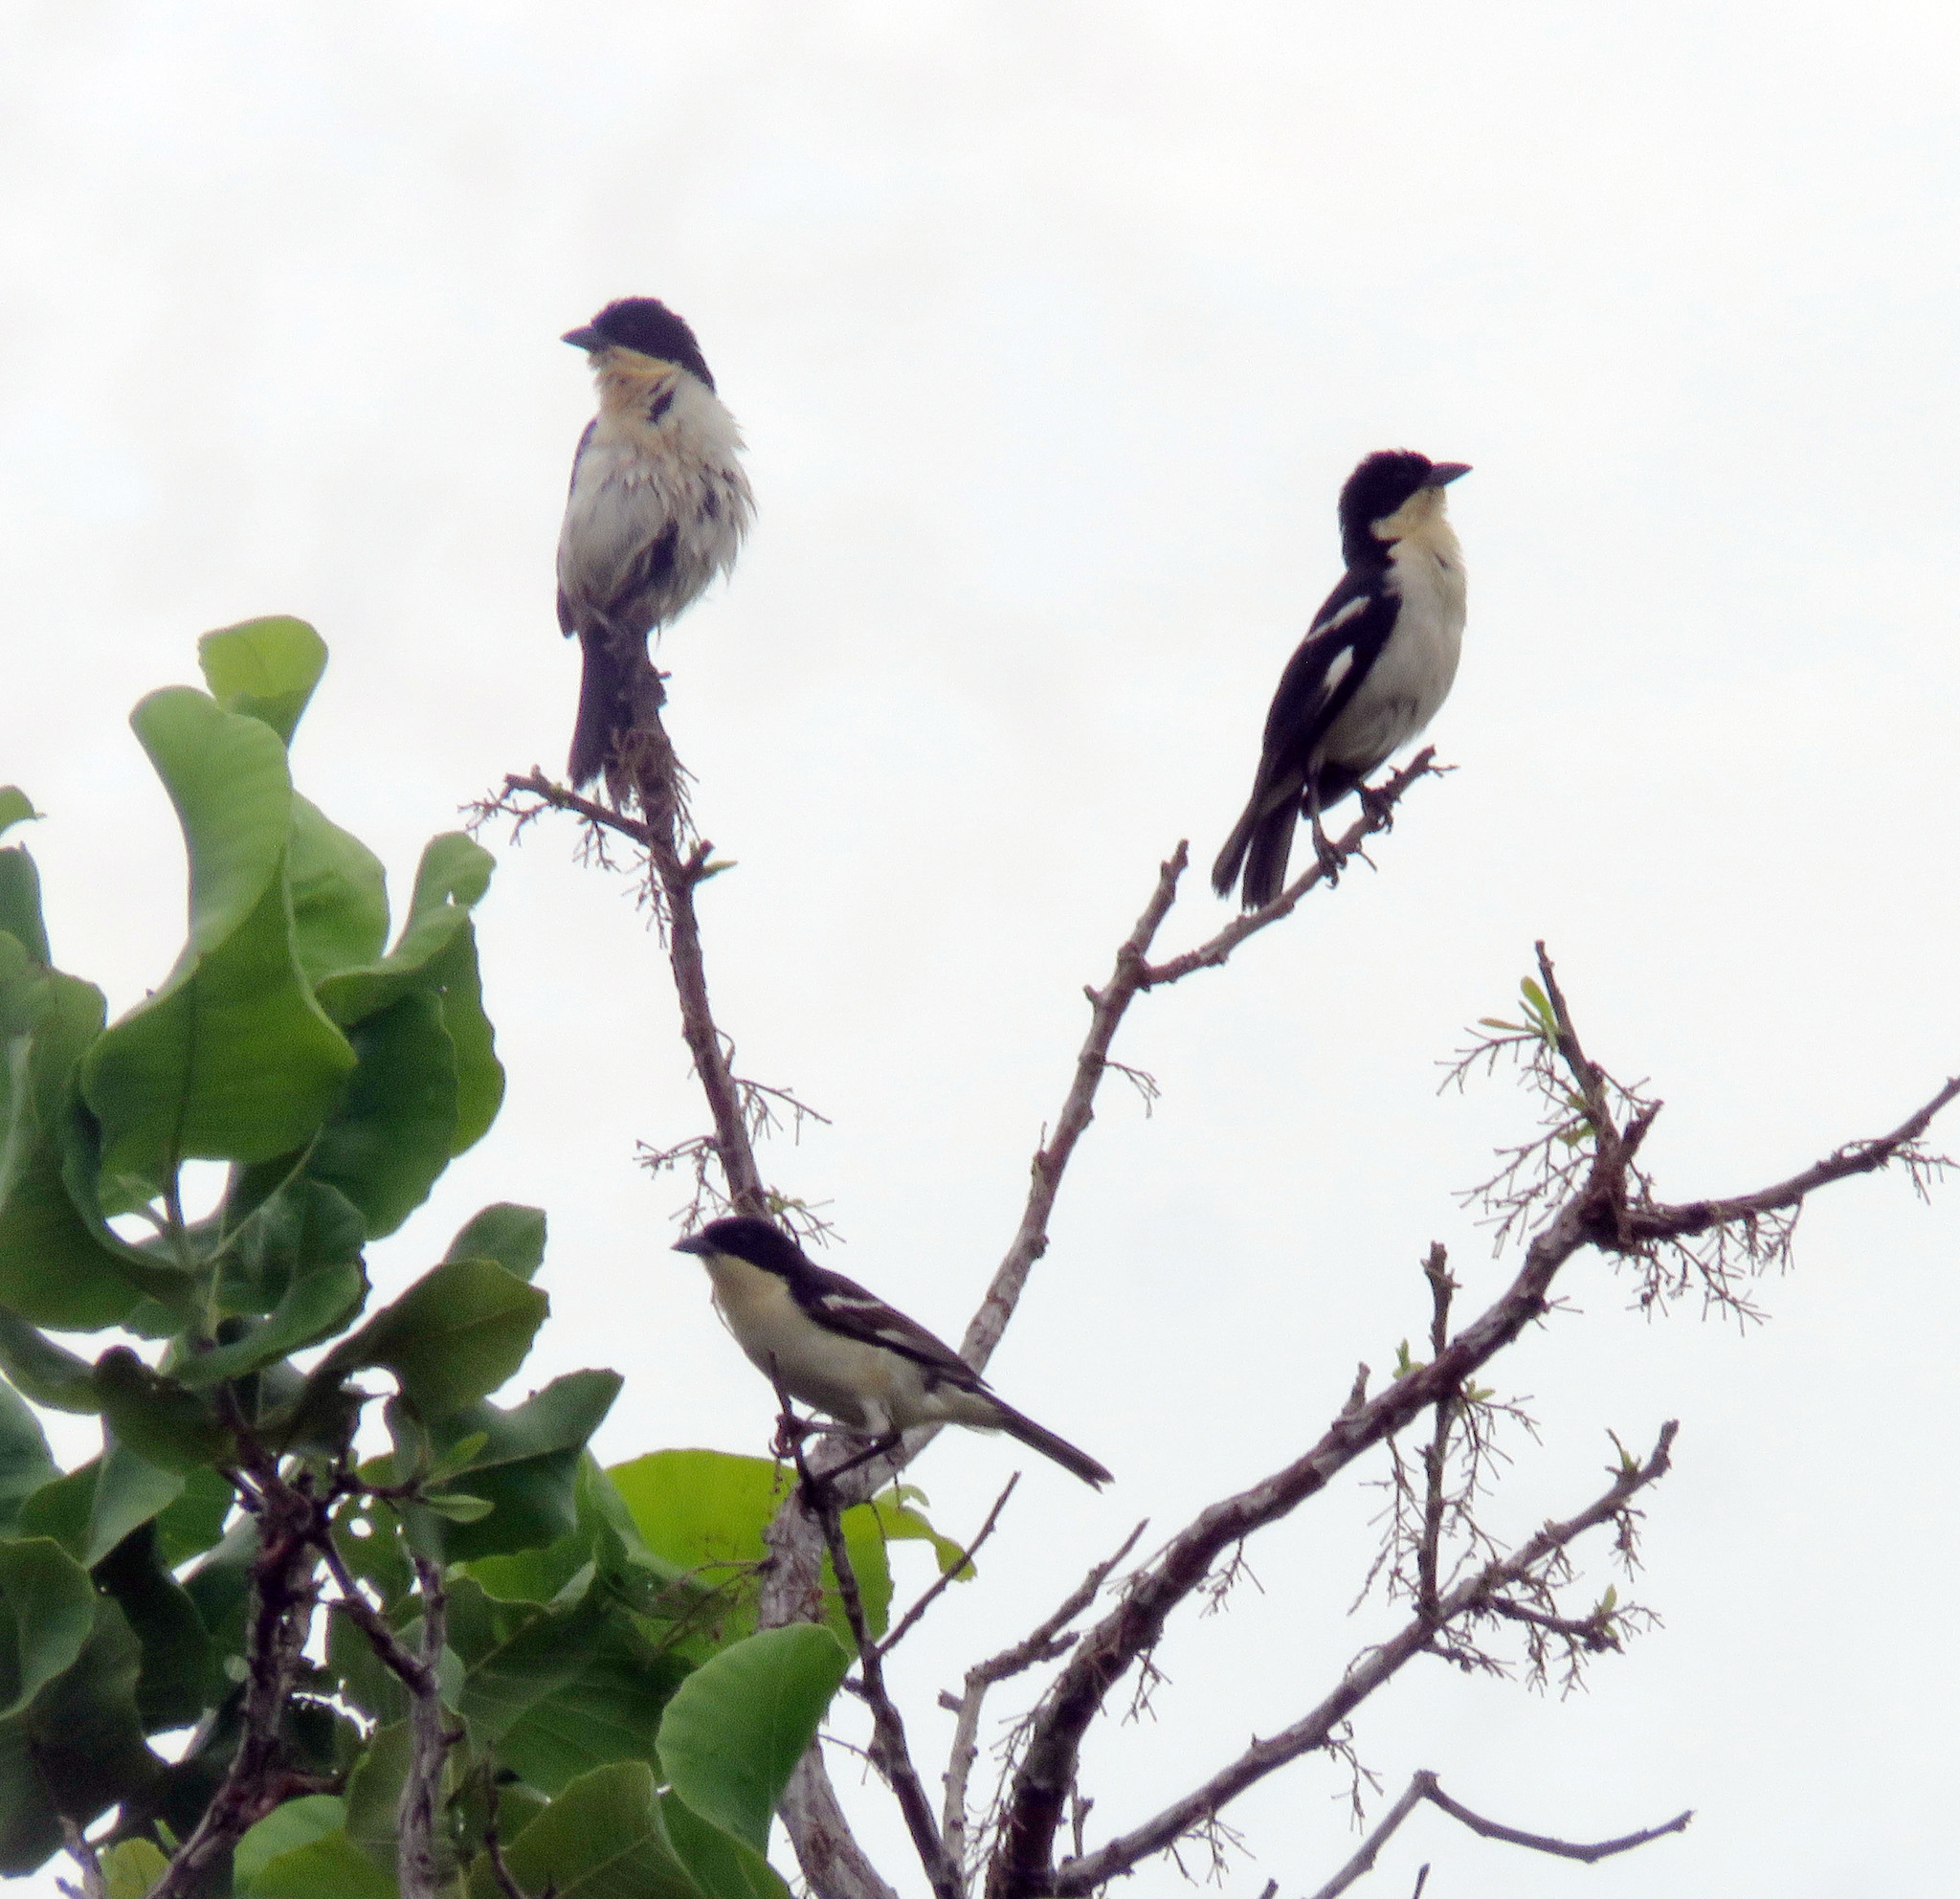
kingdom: Animalia
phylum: Chordata
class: Aves
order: Passeriformes
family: Thraupidae
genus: Cypsnagra
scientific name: Cypsnagra hirundinacea
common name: White-rumped tanager
